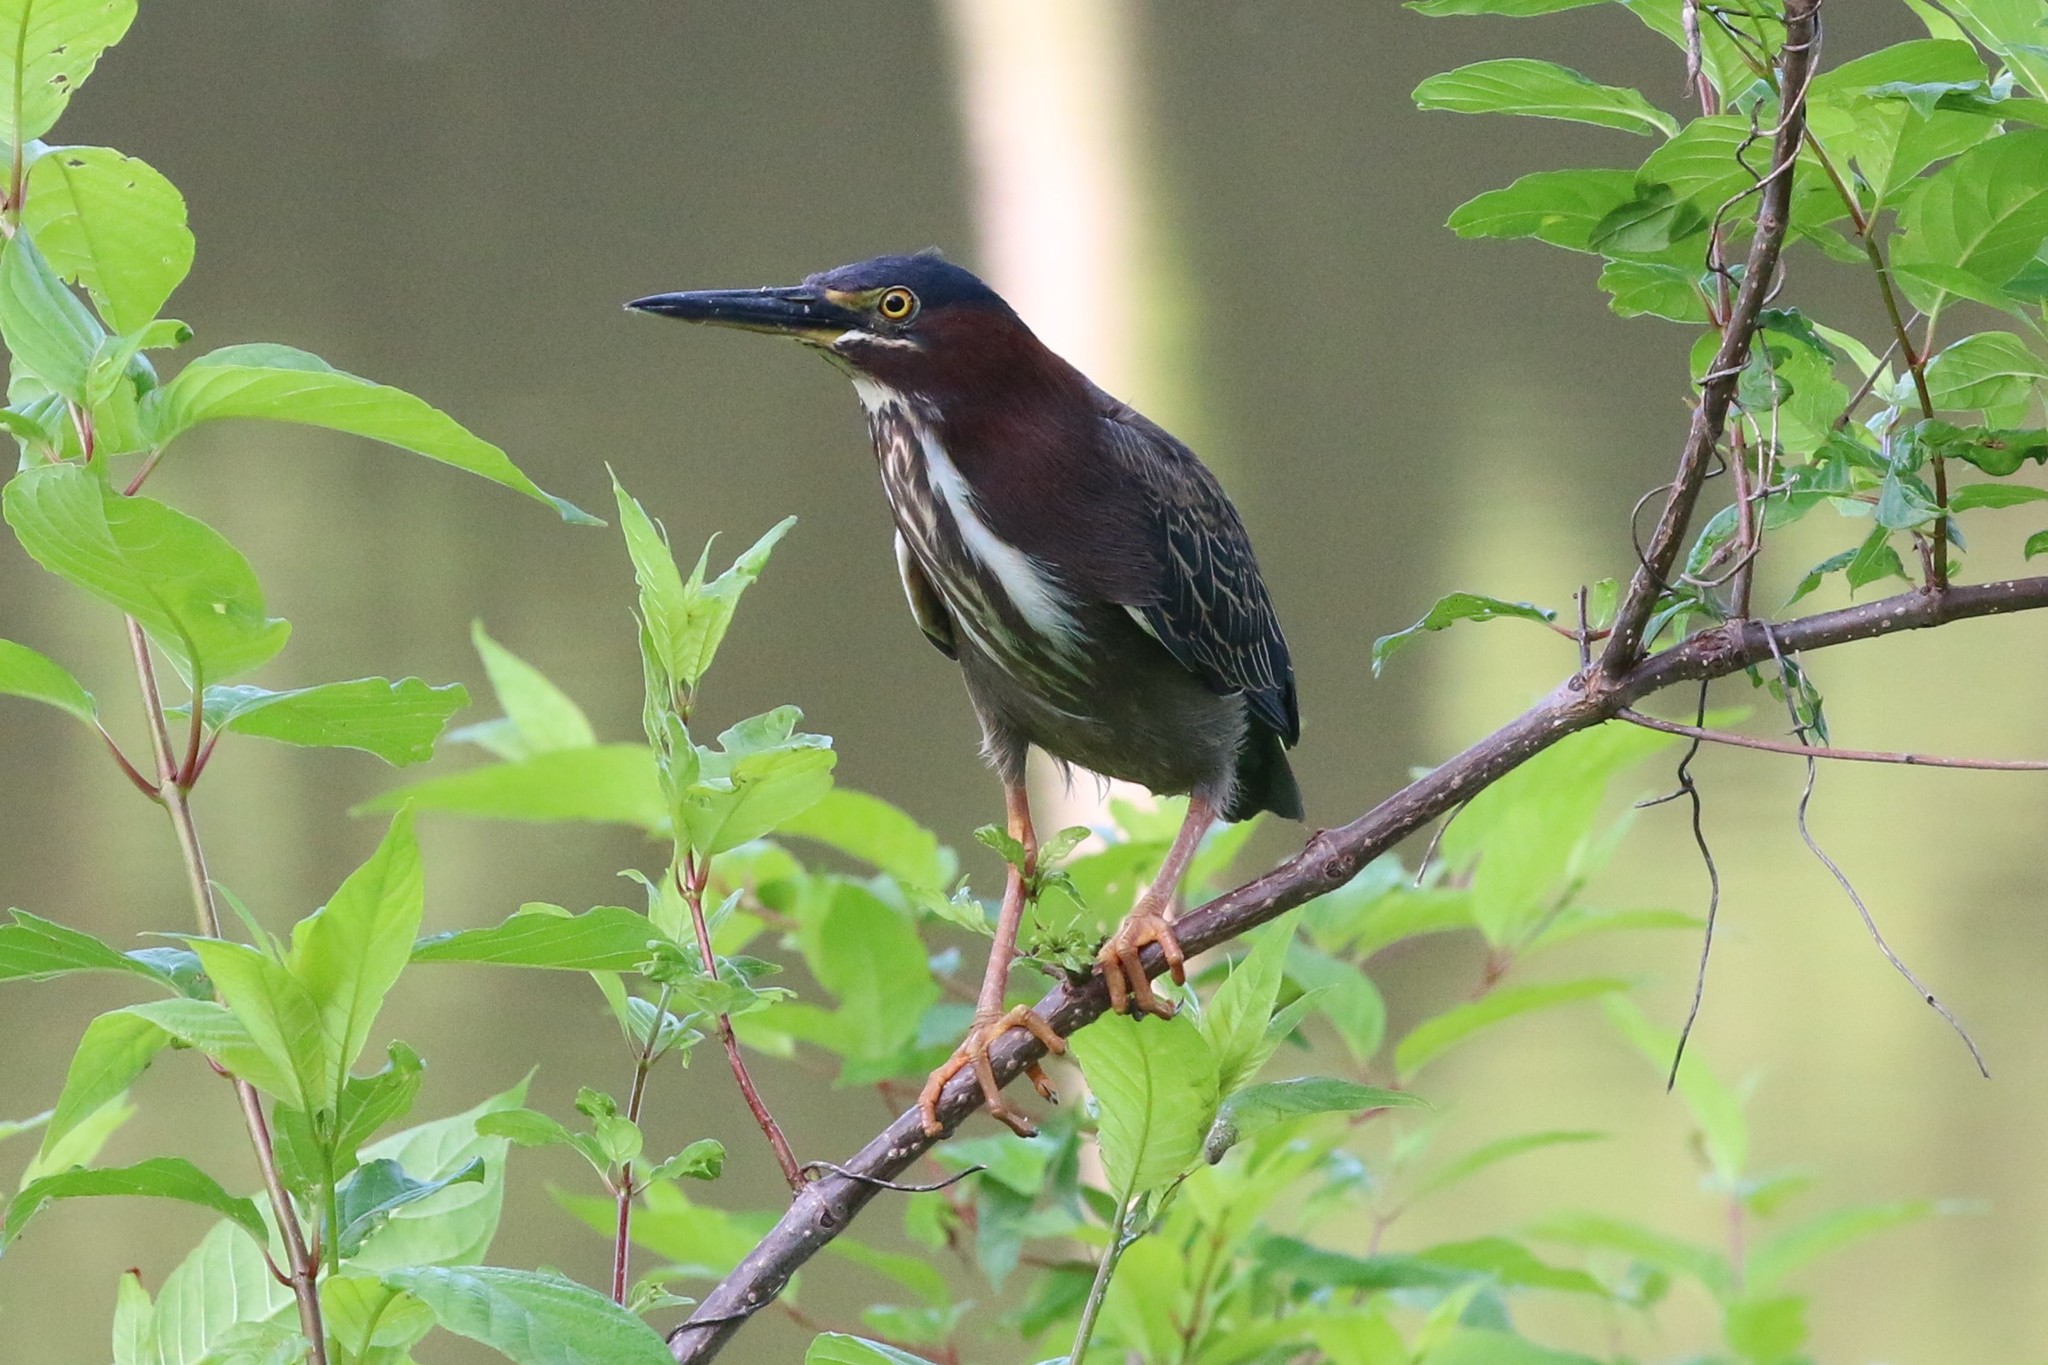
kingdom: Animalia
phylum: Chordata
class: Aves
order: Pelecaniformes
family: Ardeidae
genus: Butorides
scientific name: Butorides virescens
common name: Green heron
